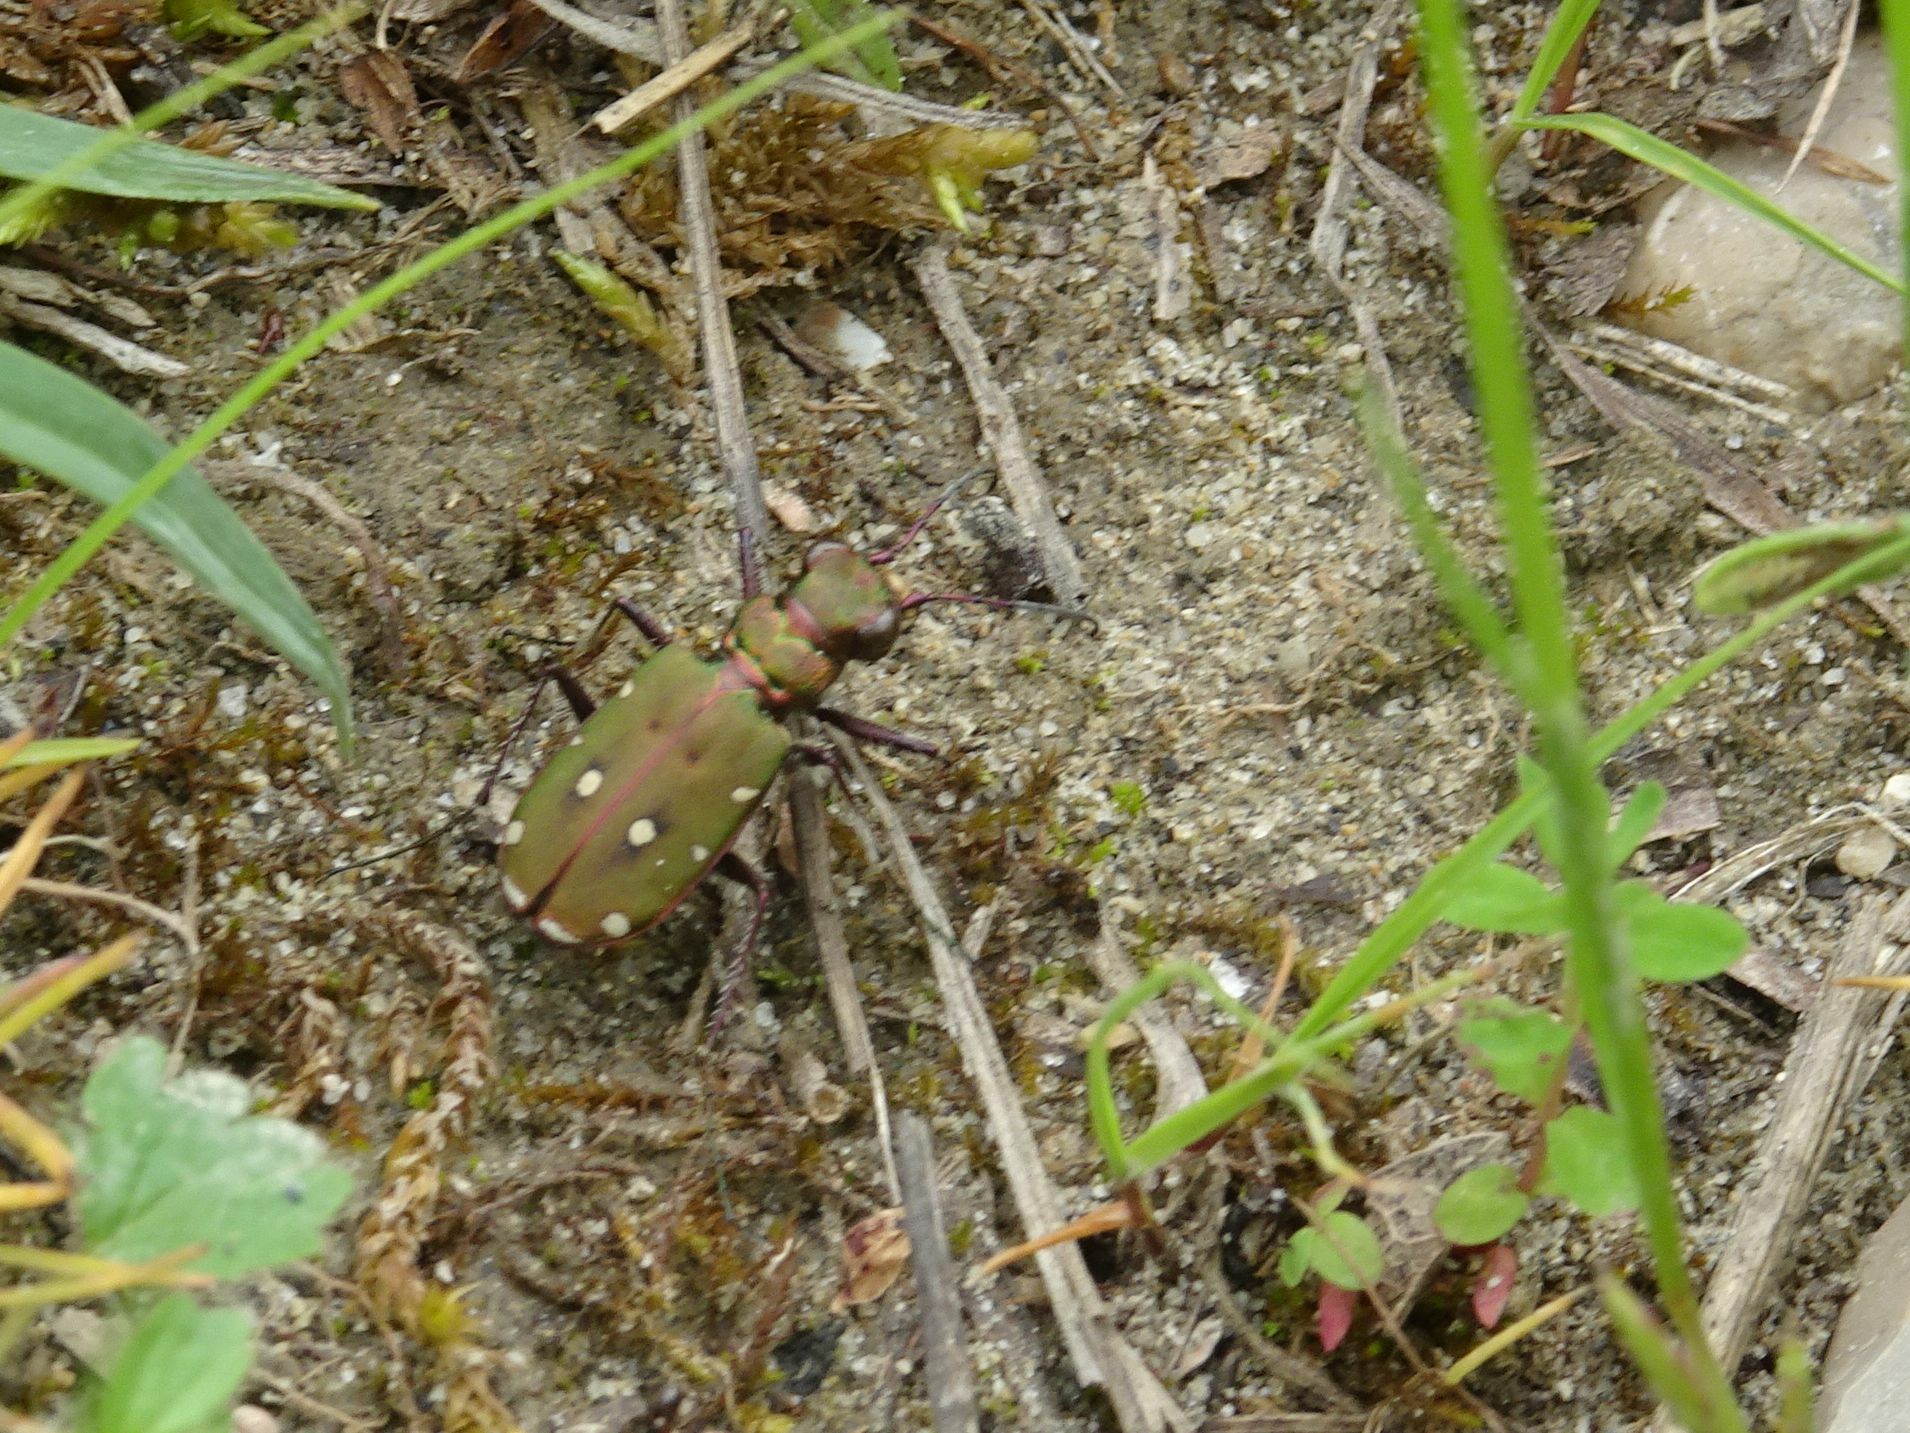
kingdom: Animalia
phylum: Arthropoda
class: Insecta
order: Coleoptera
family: Carabidae
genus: Cicindela
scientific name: Cicindela campestris
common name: Common tiger beetle
